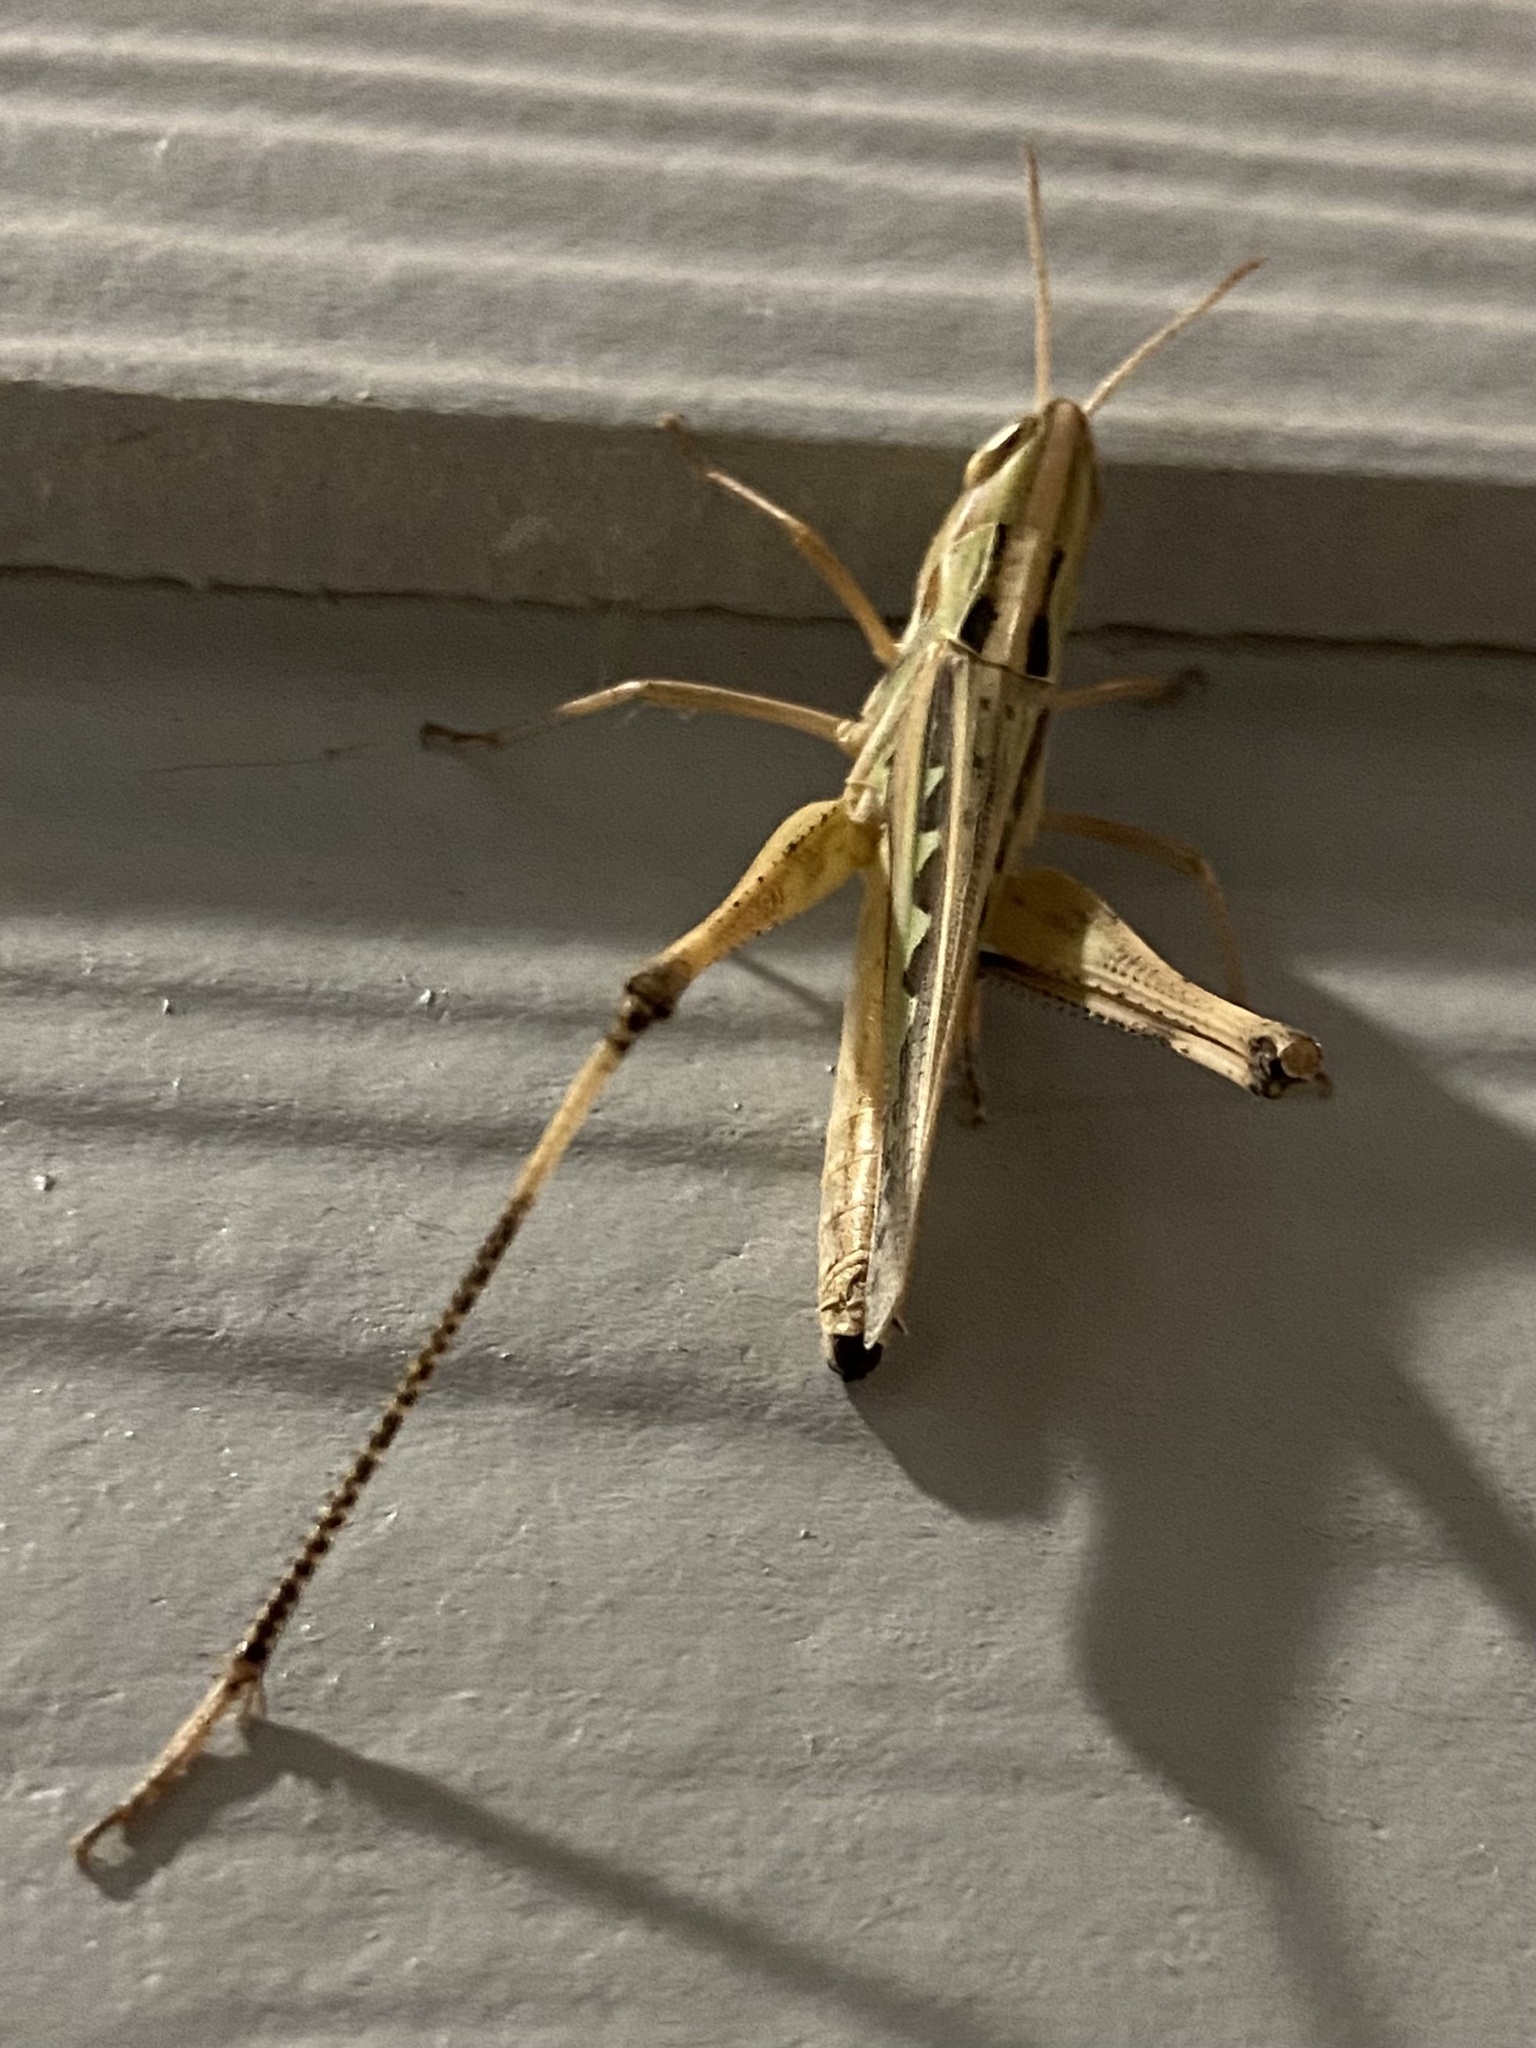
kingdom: Animalia
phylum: Arthropoda
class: Insecta
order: Orthoptera
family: Acrididae
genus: Syrbula
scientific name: Syrbula admirabilis
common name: Handsome grasshopper
